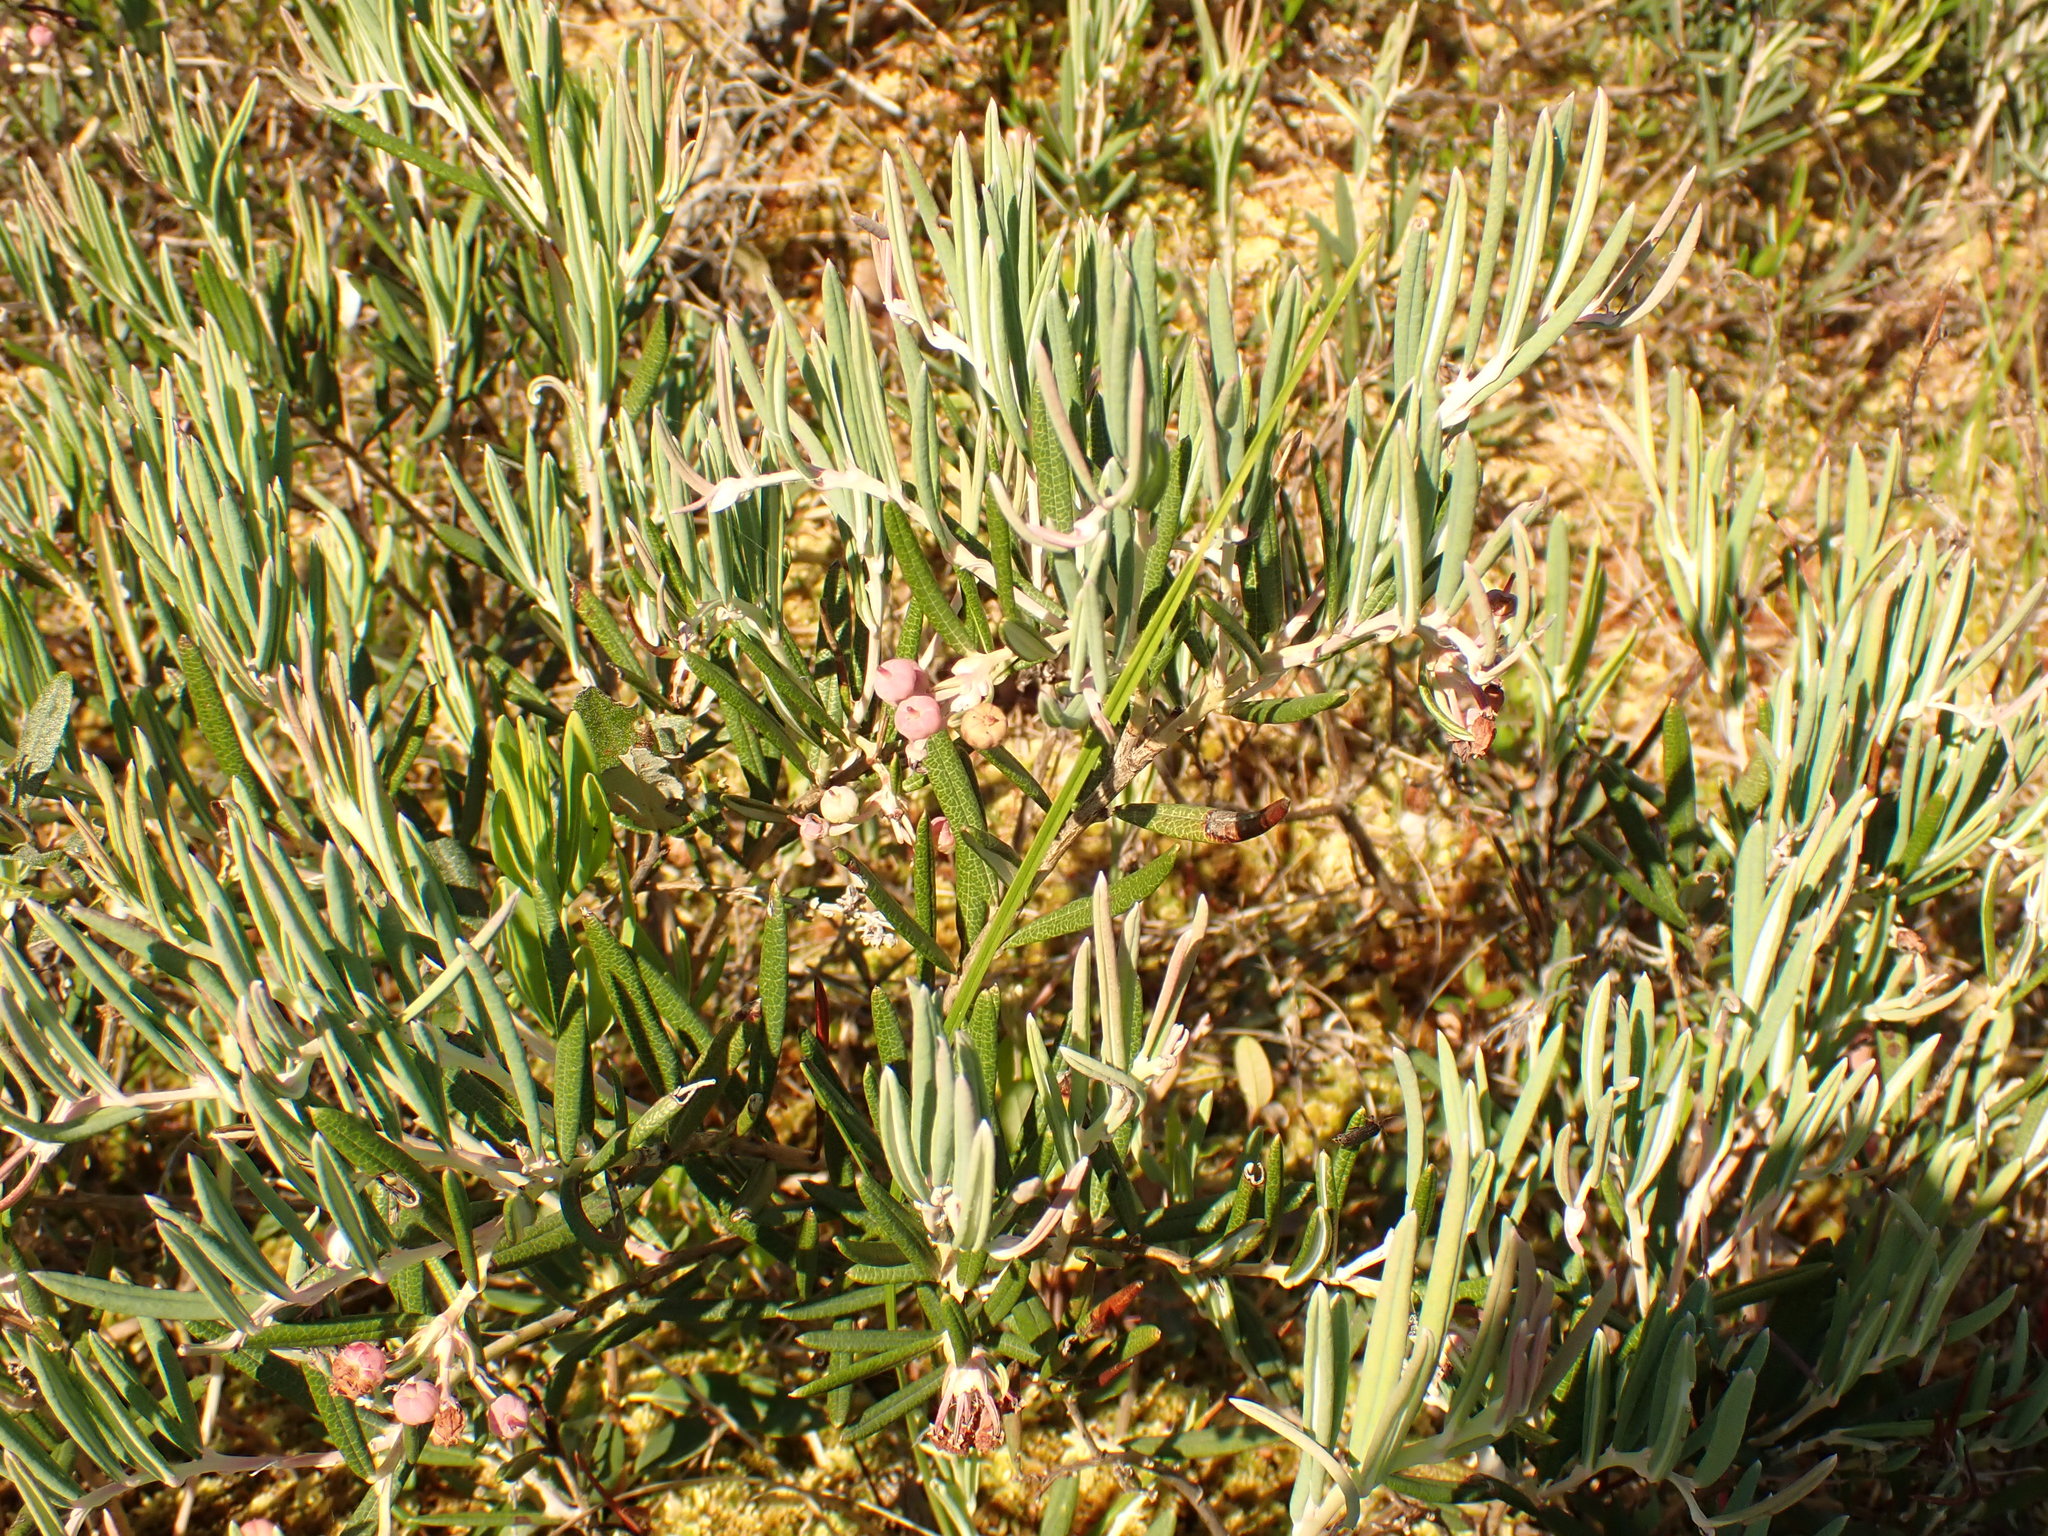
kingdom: Plantae
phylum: Tracheophyta
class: Magnoliopsida
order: Ericales
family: Ericaceae
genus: Andromeda
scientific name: Andromeda polifolia
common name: Bog-rosemary
